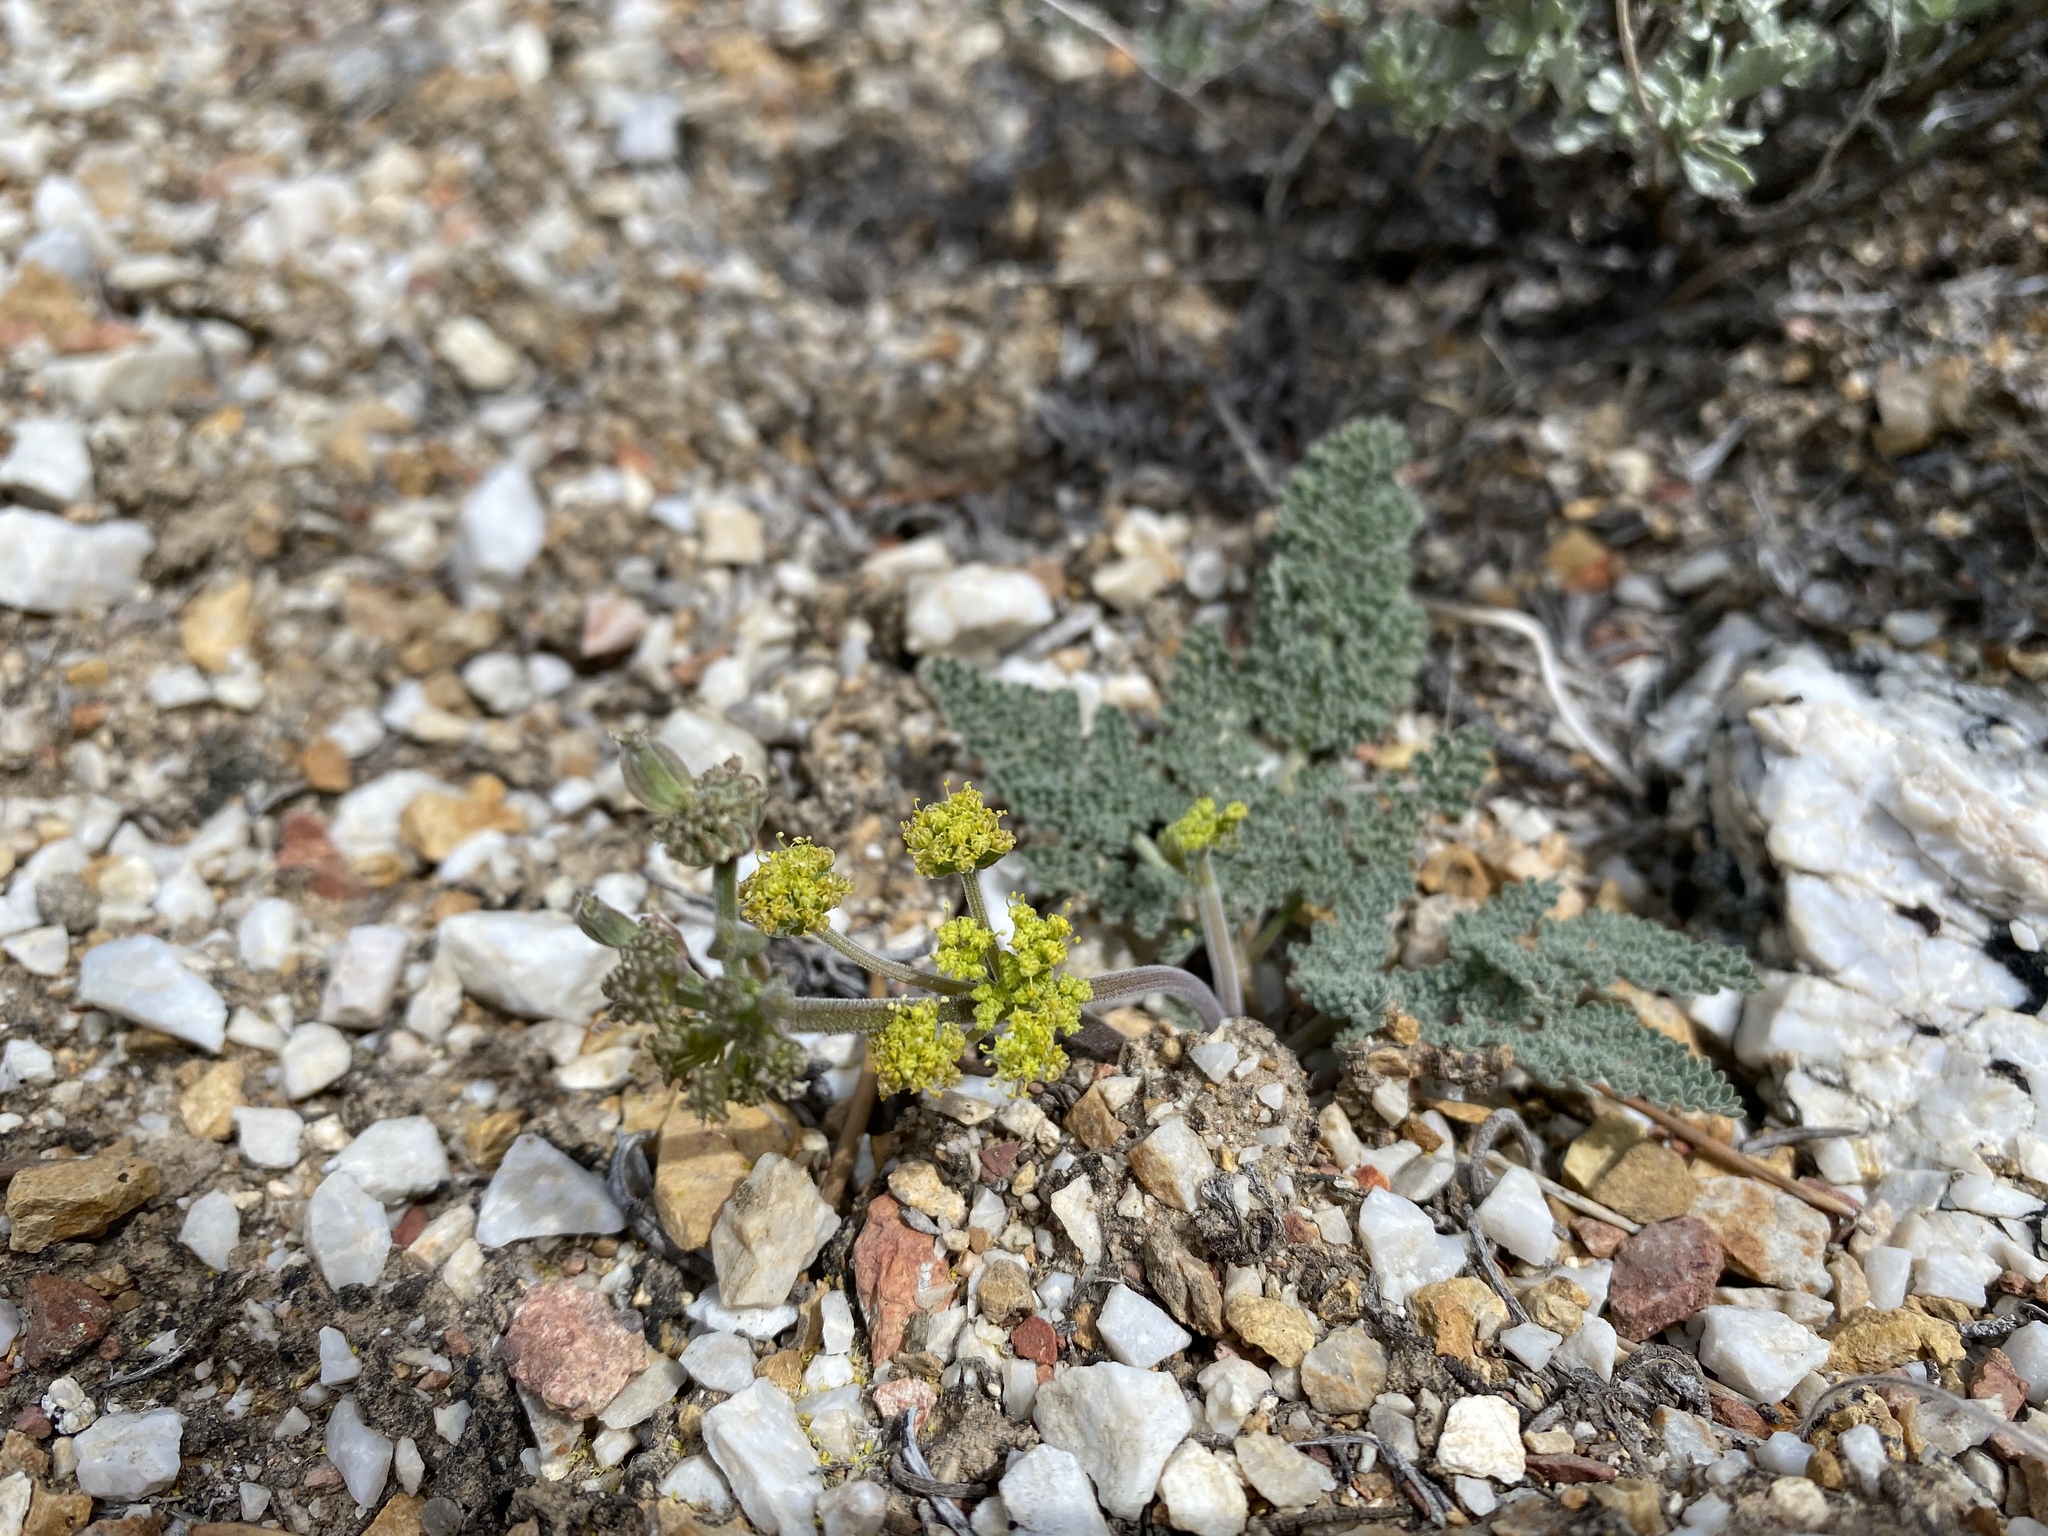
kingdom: Plantae
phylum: Tracheophyta
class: Magnoliopsida
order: Apiales
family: Apiaceae
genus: Lomatium
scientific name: Lomatium foeniculaceum
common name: Desert-parsley
